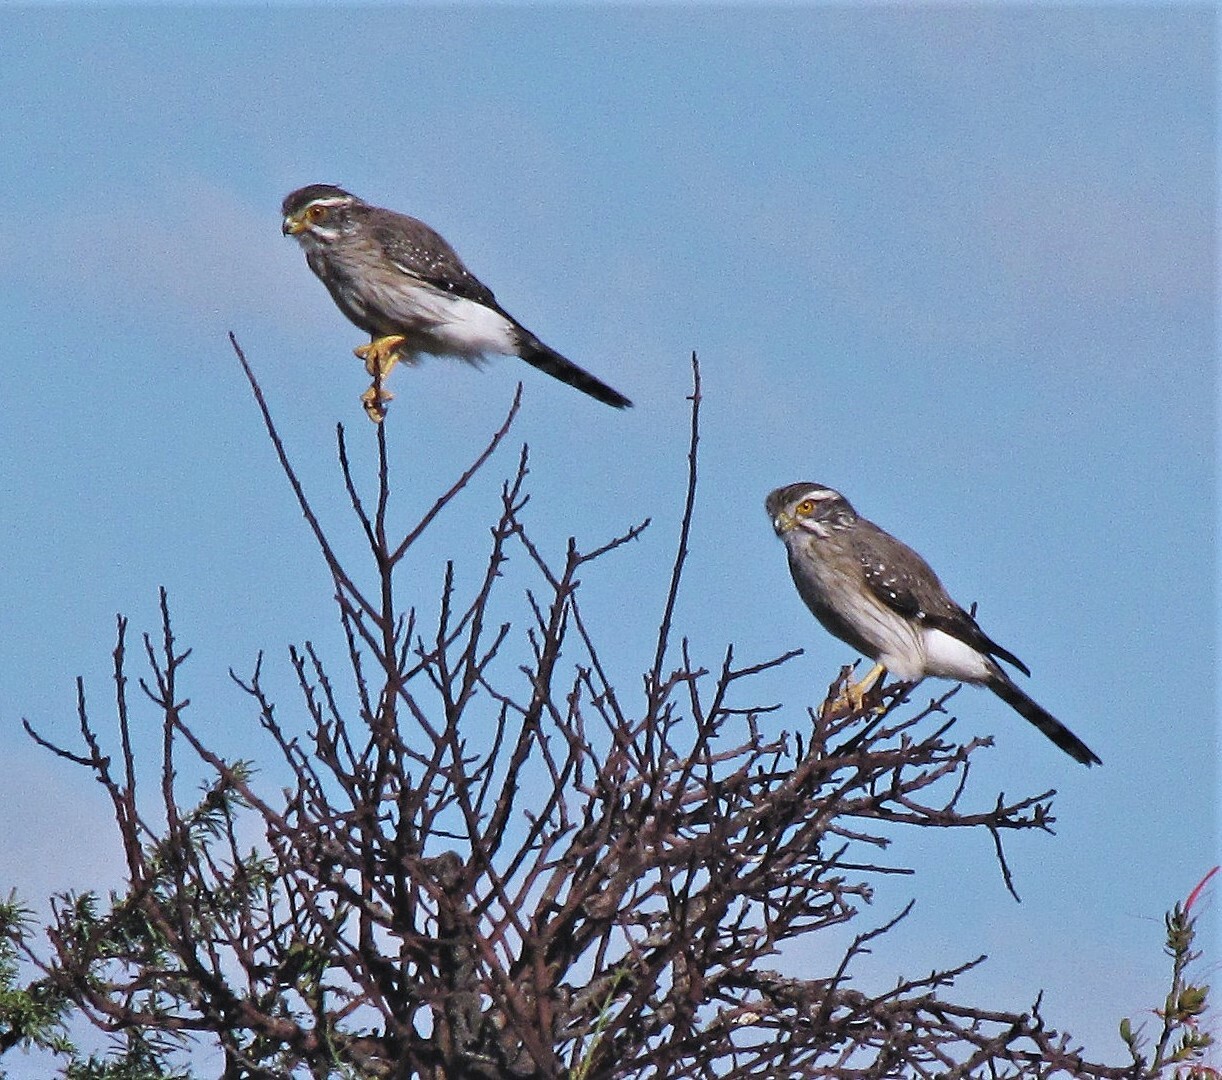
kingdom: Animalia
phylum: Chordata
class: Aves
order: Falconiformes
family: Falconidae
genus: Spiziapteryx
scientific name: Spiziapteryx circumcincta
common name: Spot-winged falconet
